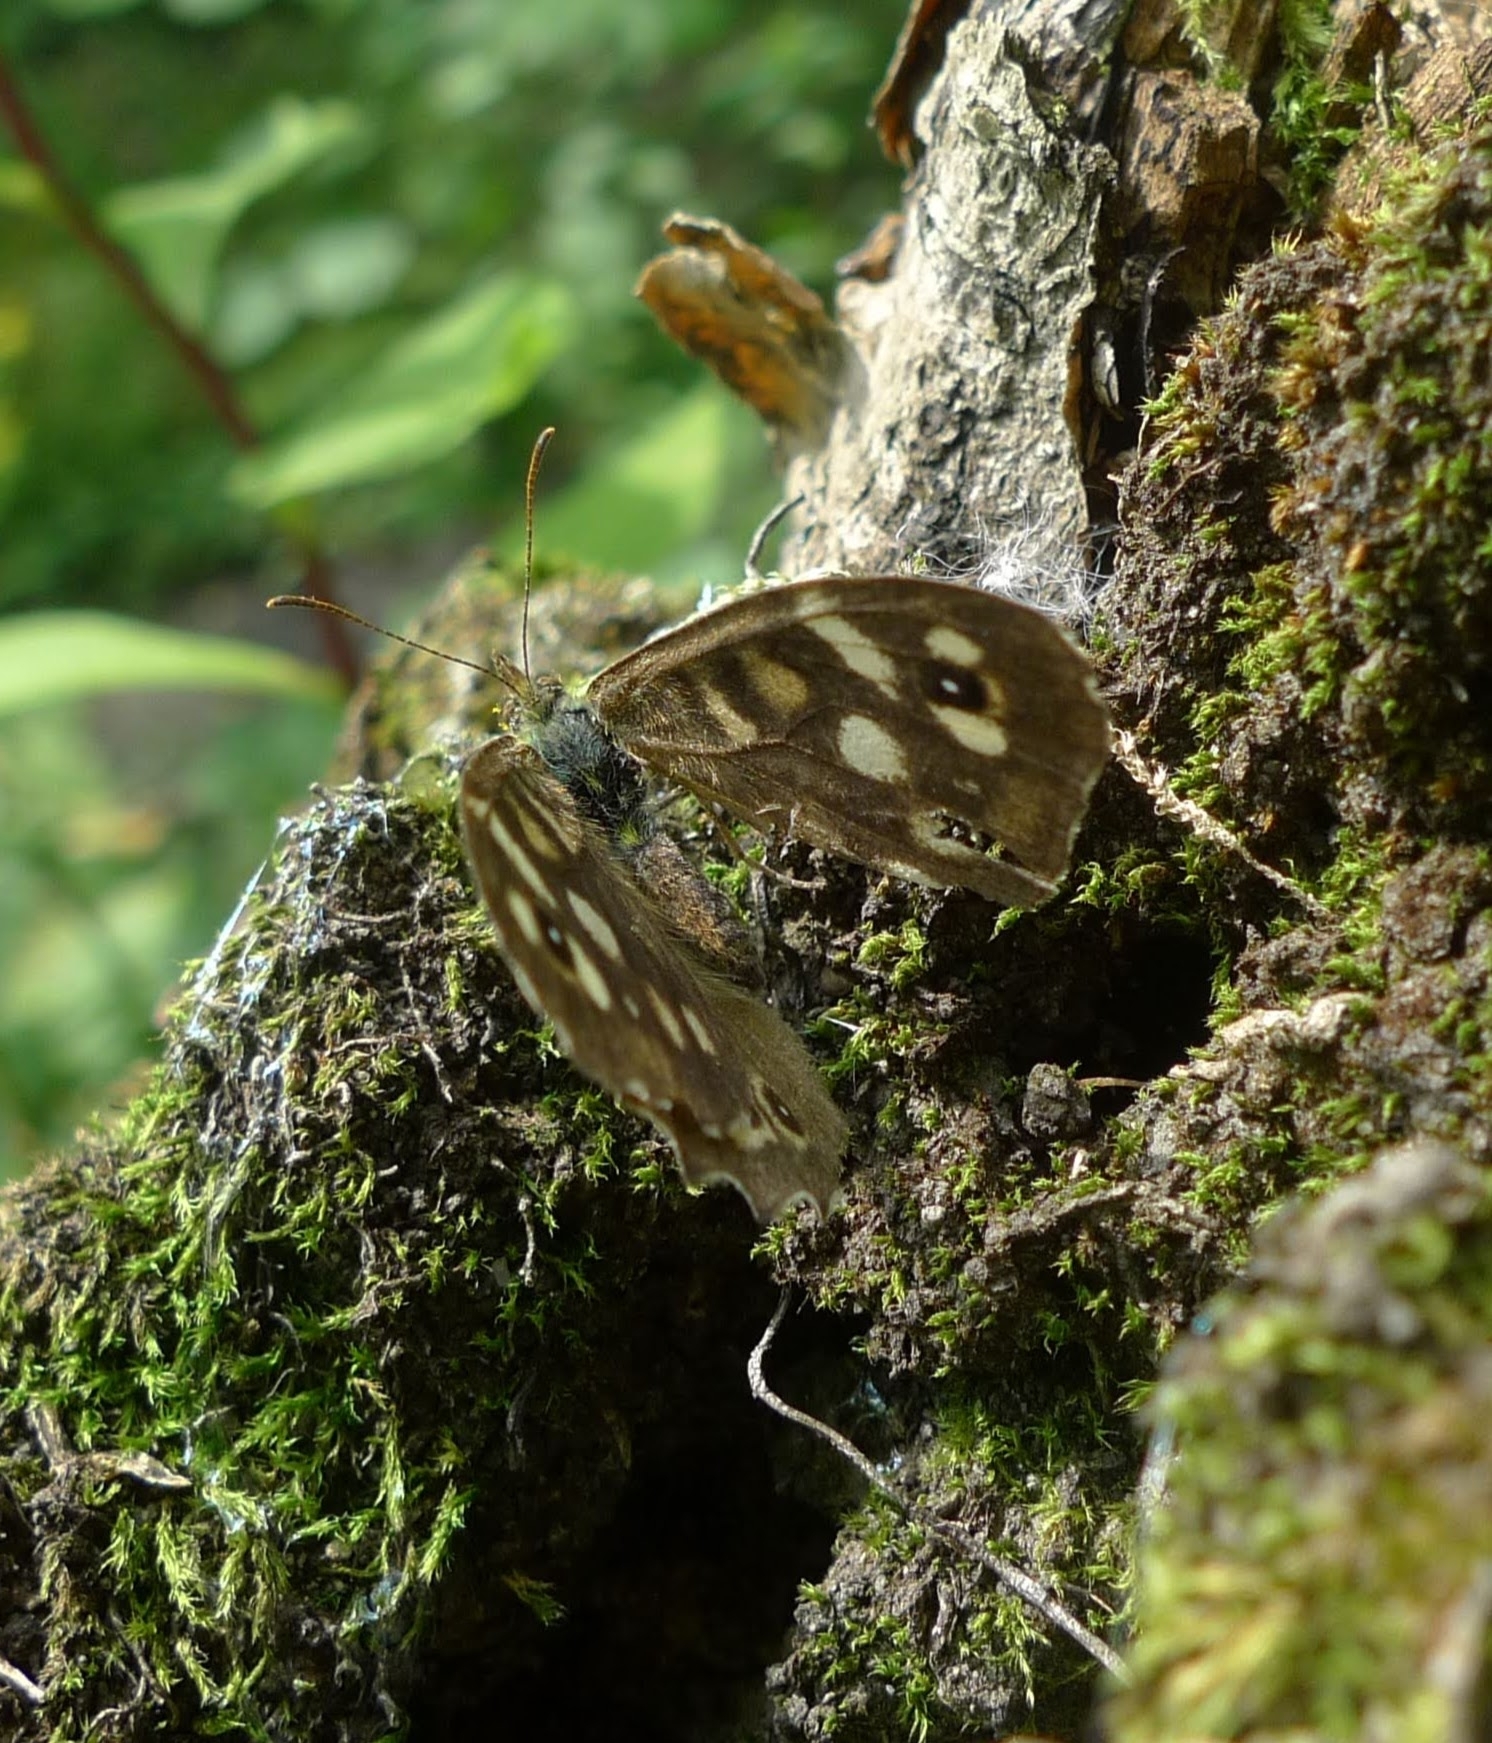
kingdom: Animalia
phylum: Arthropoda
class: Insecta
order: Lepidoptera
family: Nymphalidae
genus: Pararge
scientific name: Pararge aegeria
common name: Speckled wood
